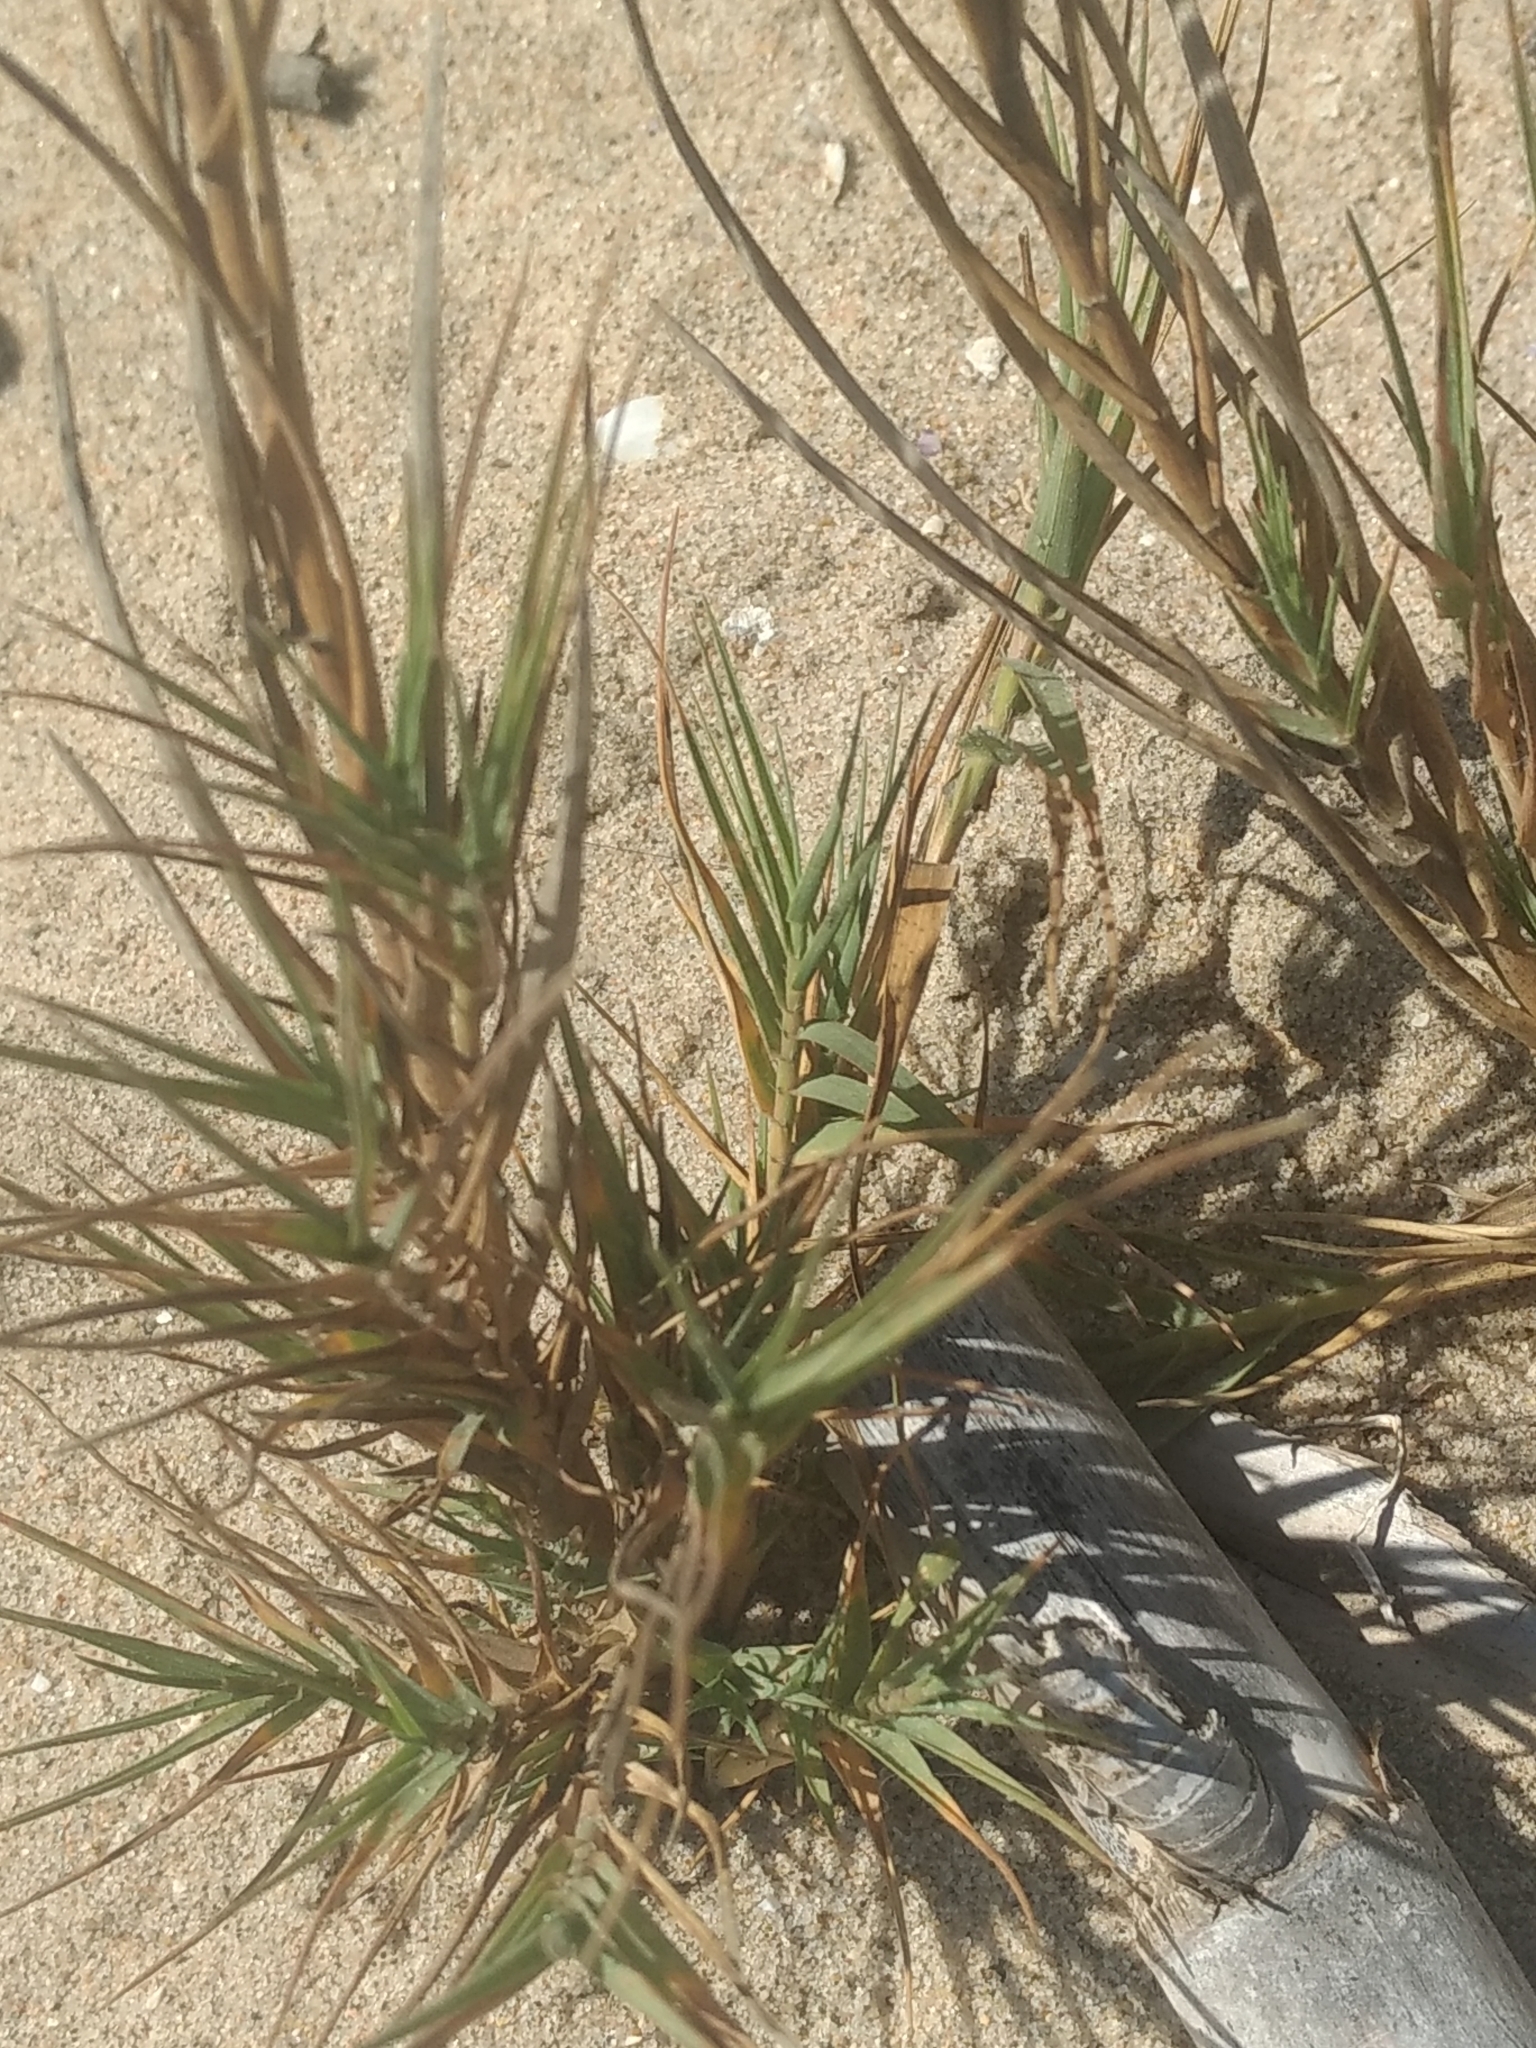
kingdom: Plantae
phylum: Tracheophyta
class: Liliopsida
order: Poales
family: Poaceae
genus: Distichlis
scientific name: Distichlis spicata
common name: Saltgrass
